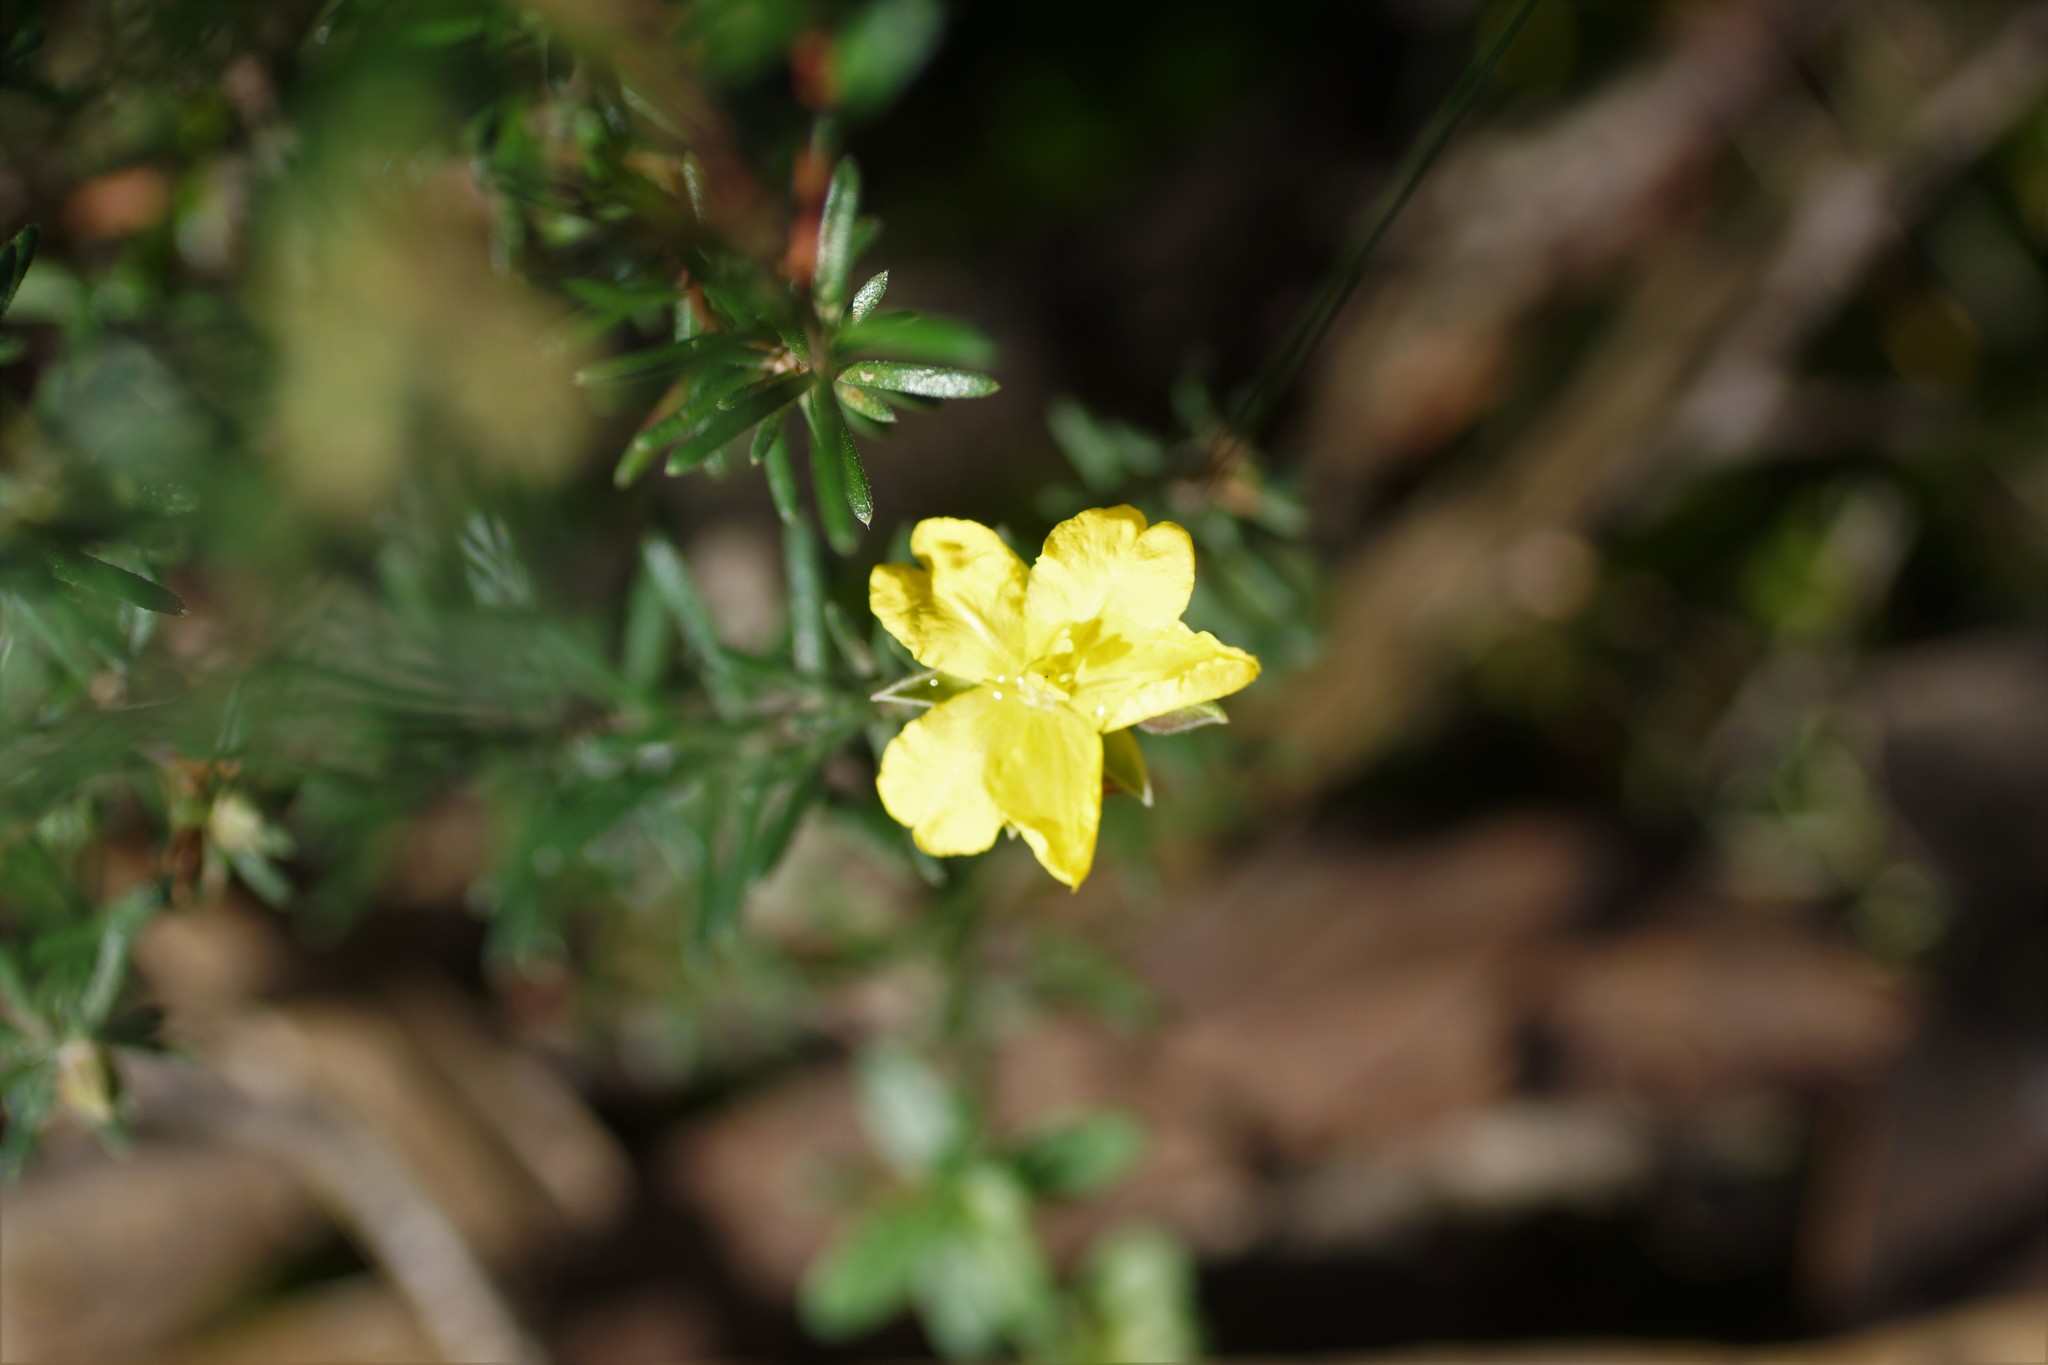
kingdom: Plantae
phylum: Tracheophyta
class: Magnoliopsida
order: Dilleniales
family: Dilleniaceae
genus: Hibbertia
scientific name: Hibbertia riparia
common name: Erect guinea-flower
